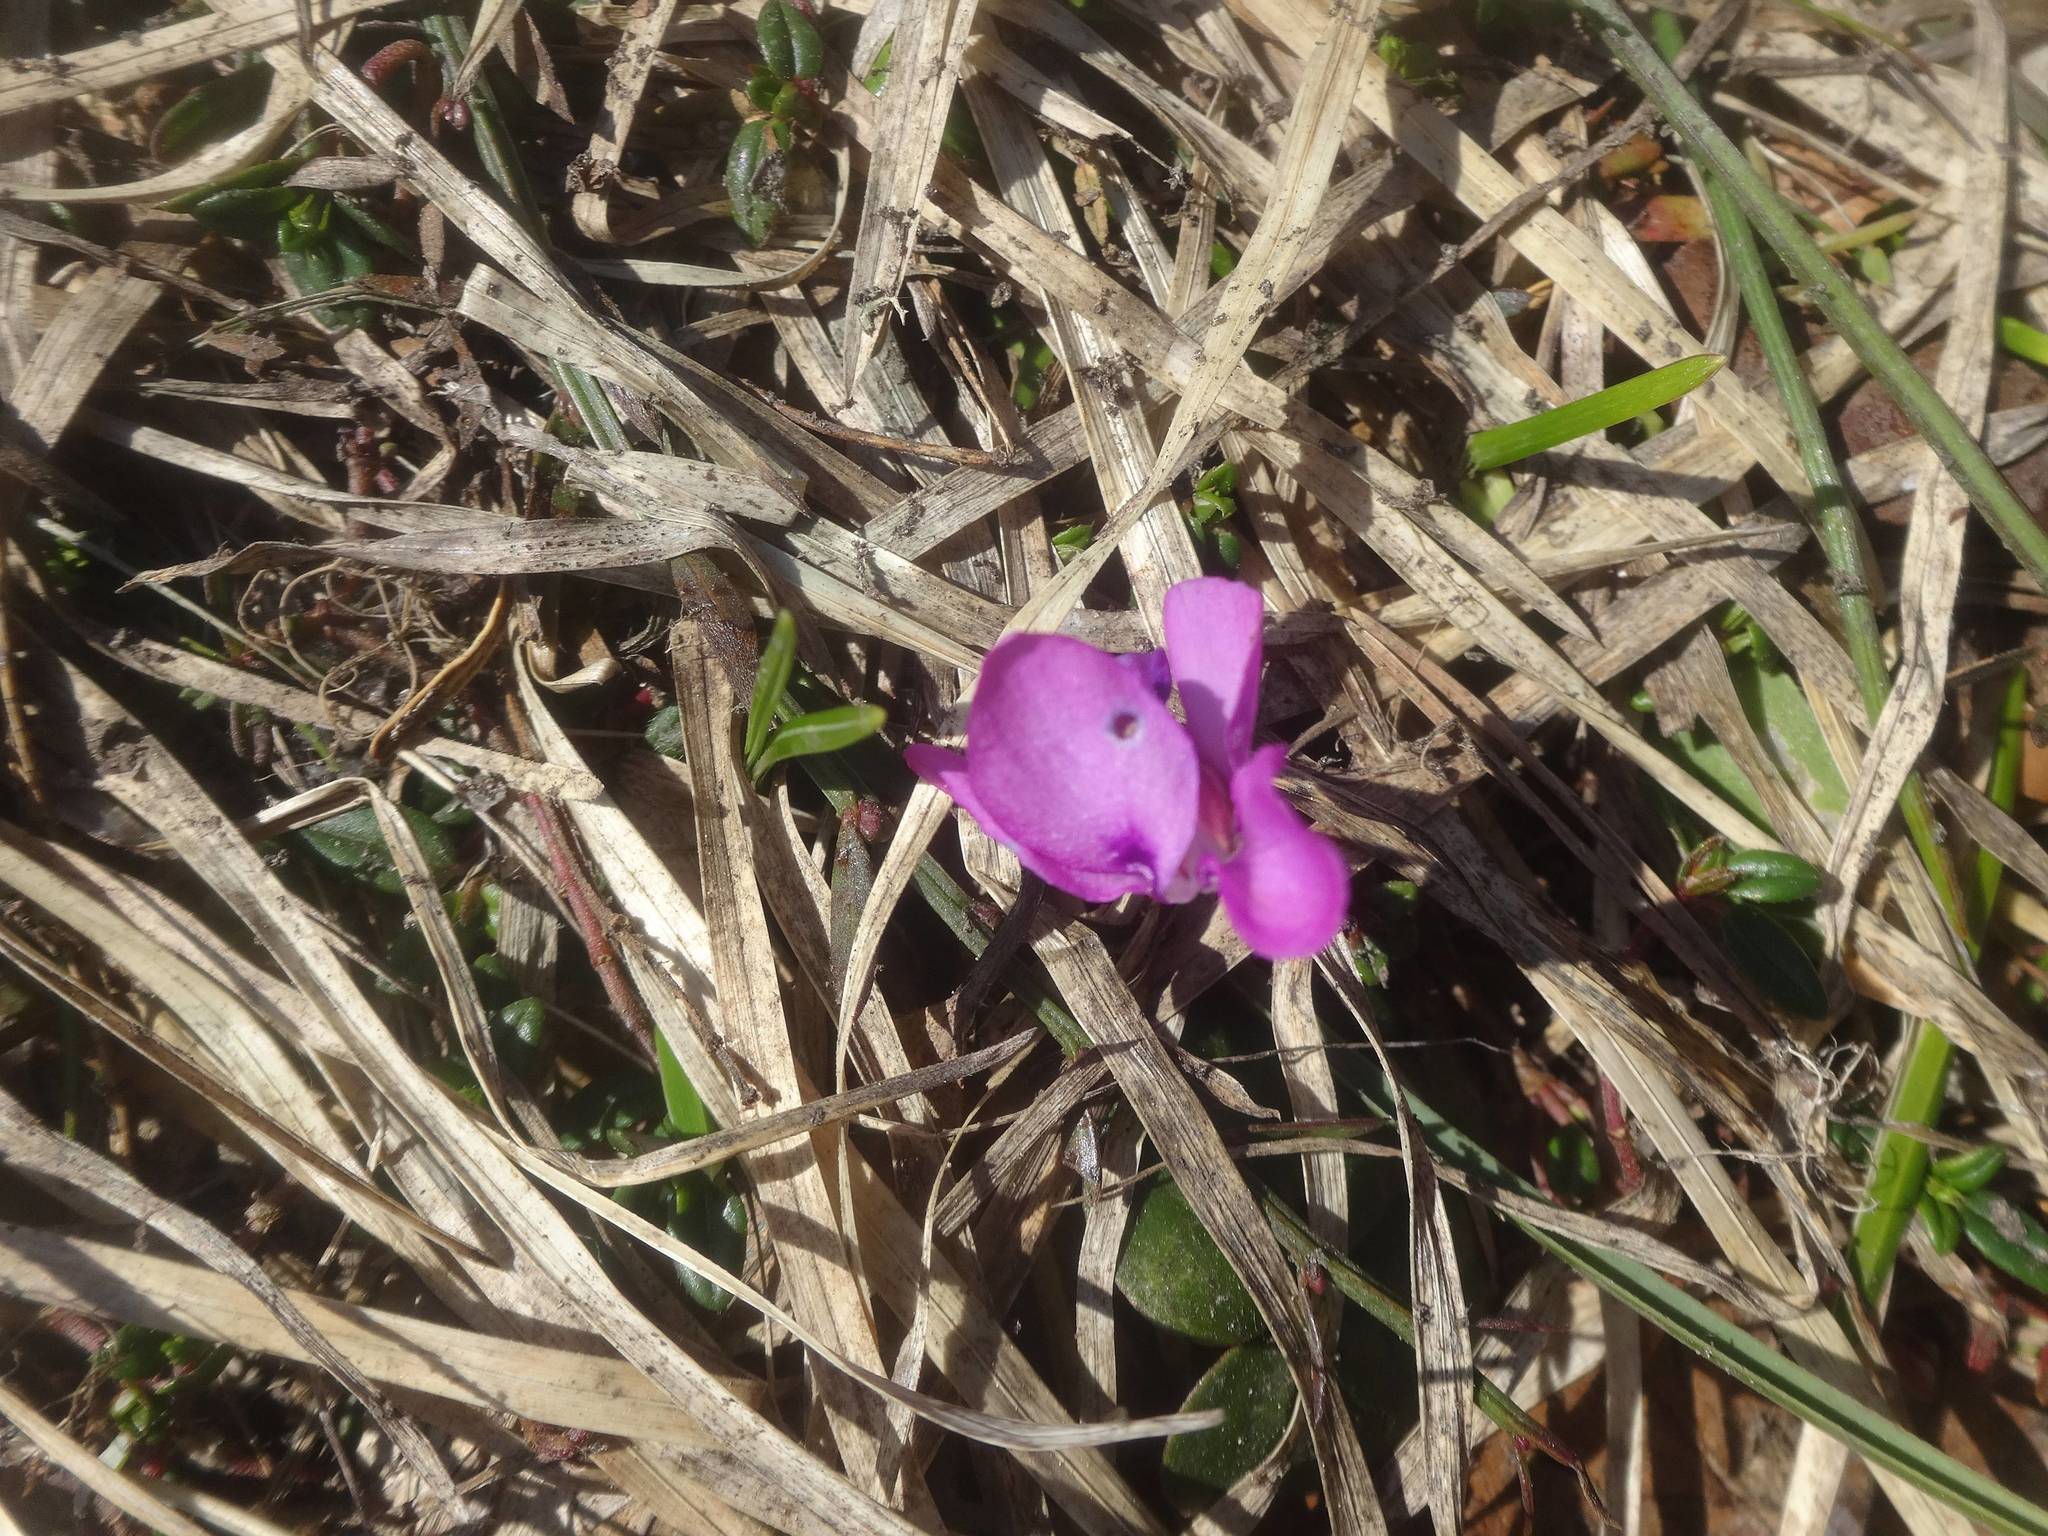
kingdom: Plantae
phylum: Tracheophyta
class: Magnoliopsida
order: Ericales
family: Primulaceae
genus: Cyclamen
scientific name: Cyclamen coum
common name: Eastern sowbread
